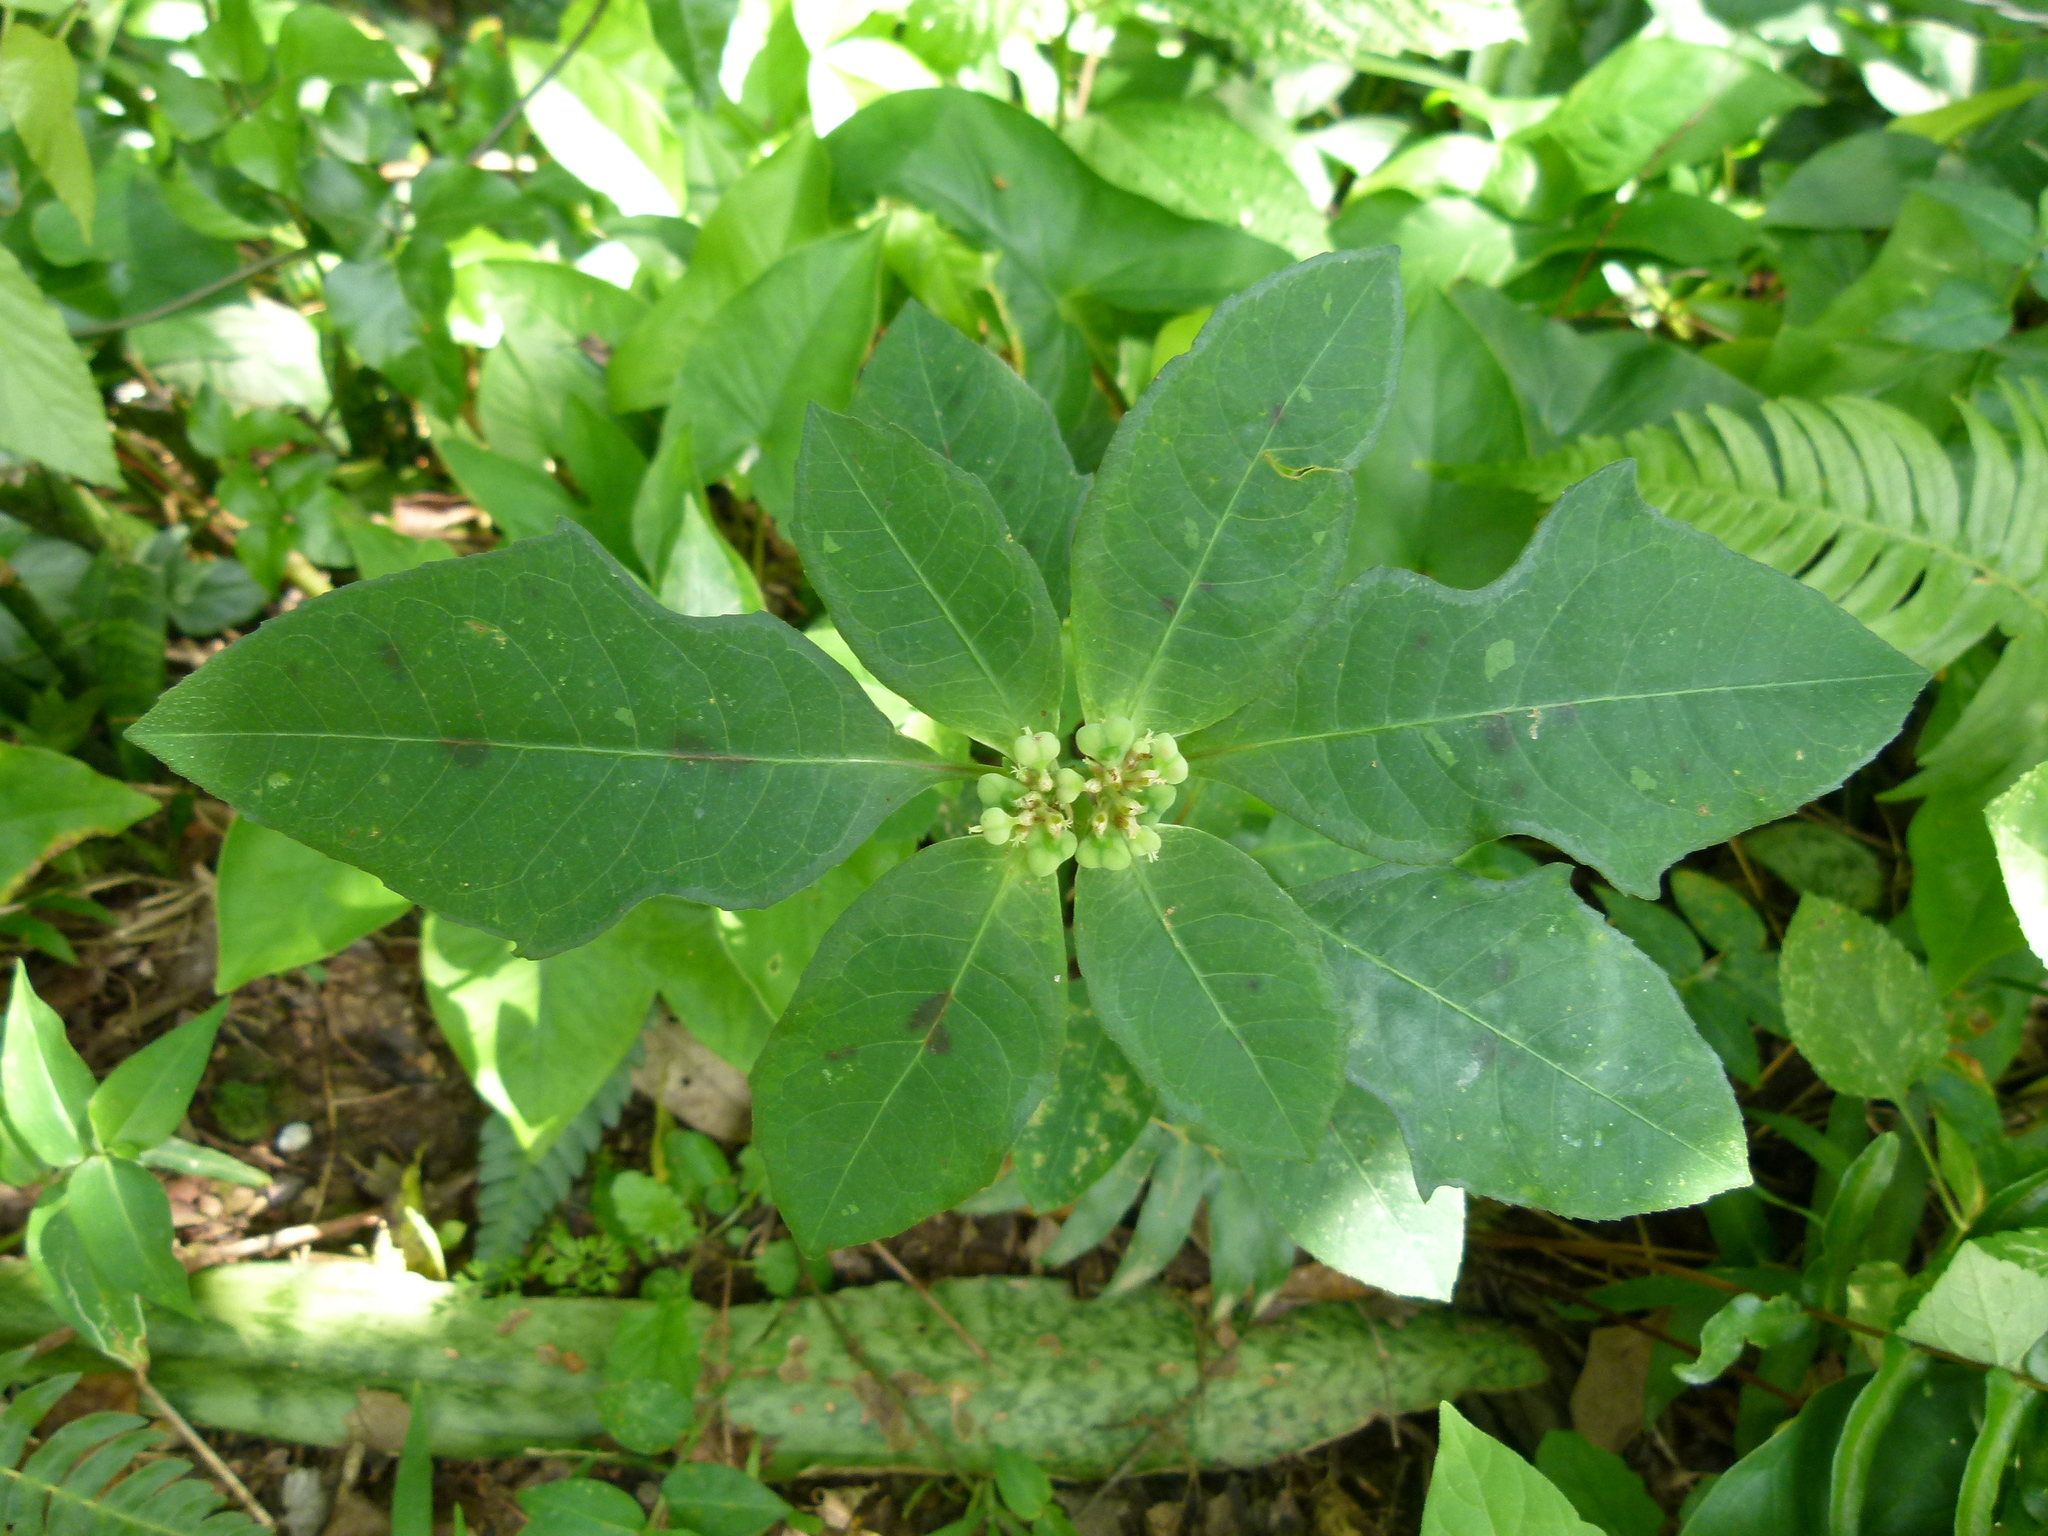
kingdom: Plantae
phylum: Tracheophyta
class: Magnoliopsida
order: Malpighiales
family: Euphorbiaceae
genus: Euphorbia
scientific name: Euphorbia heterophylla
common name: Mexican fireplant
